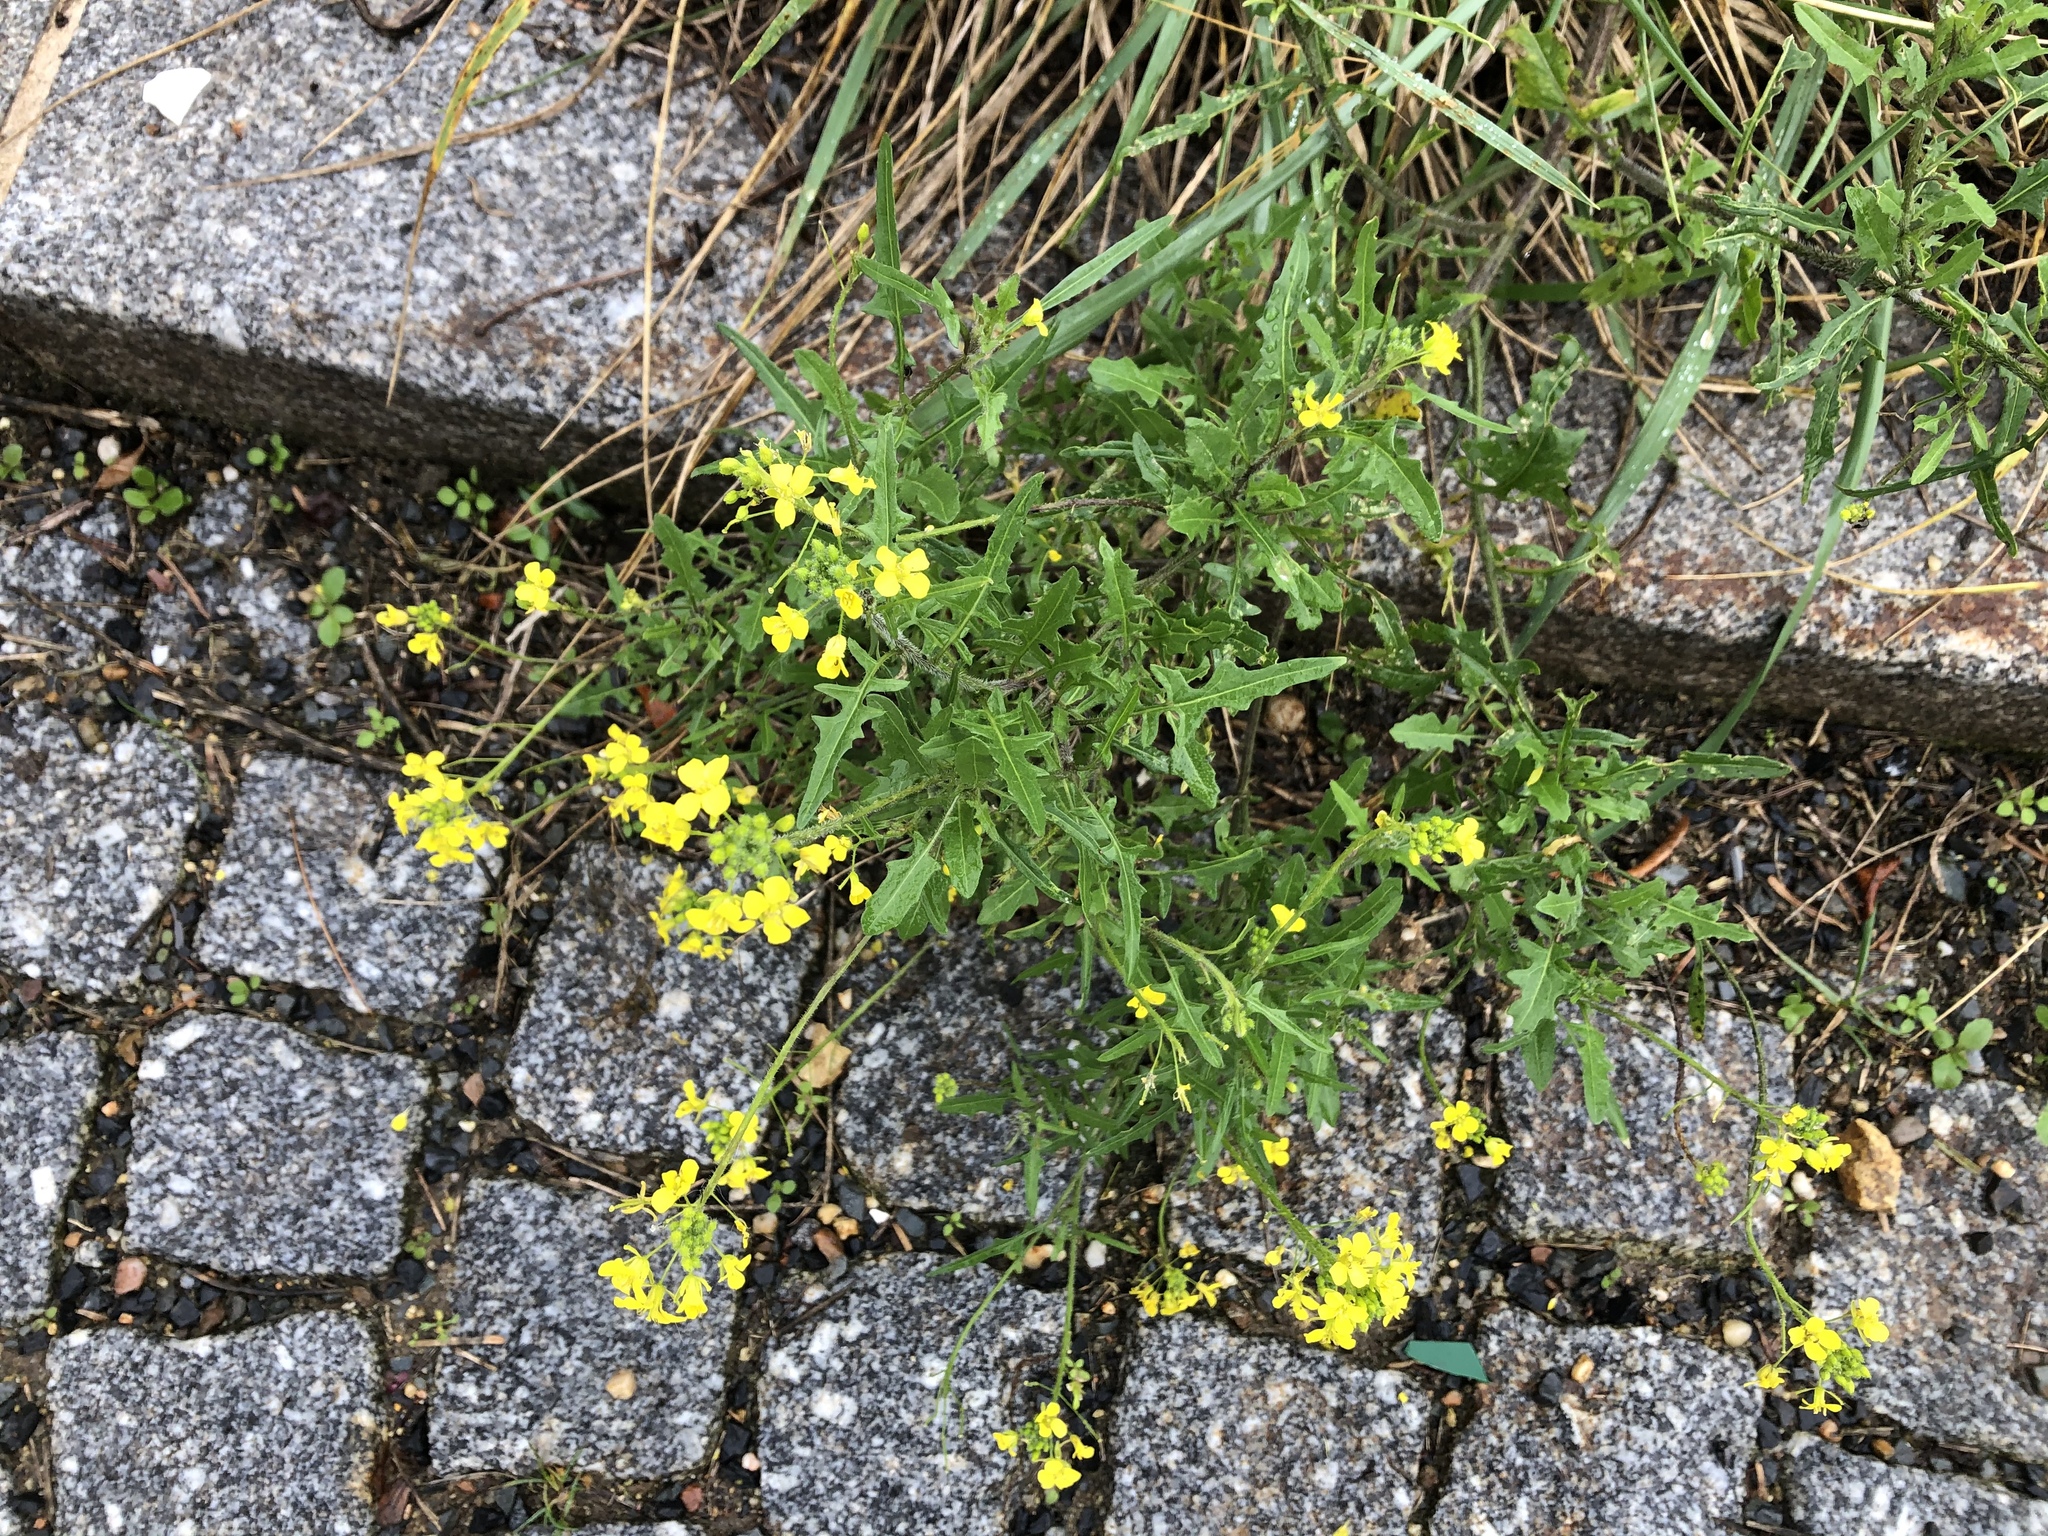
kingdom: Plantae
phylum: Tracheophyta
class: Magnoliopsida
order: Brassicales
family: Brassicaceae
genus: Sisymbrium
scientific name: Sisymbrium loeselii
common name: False london-rocket
